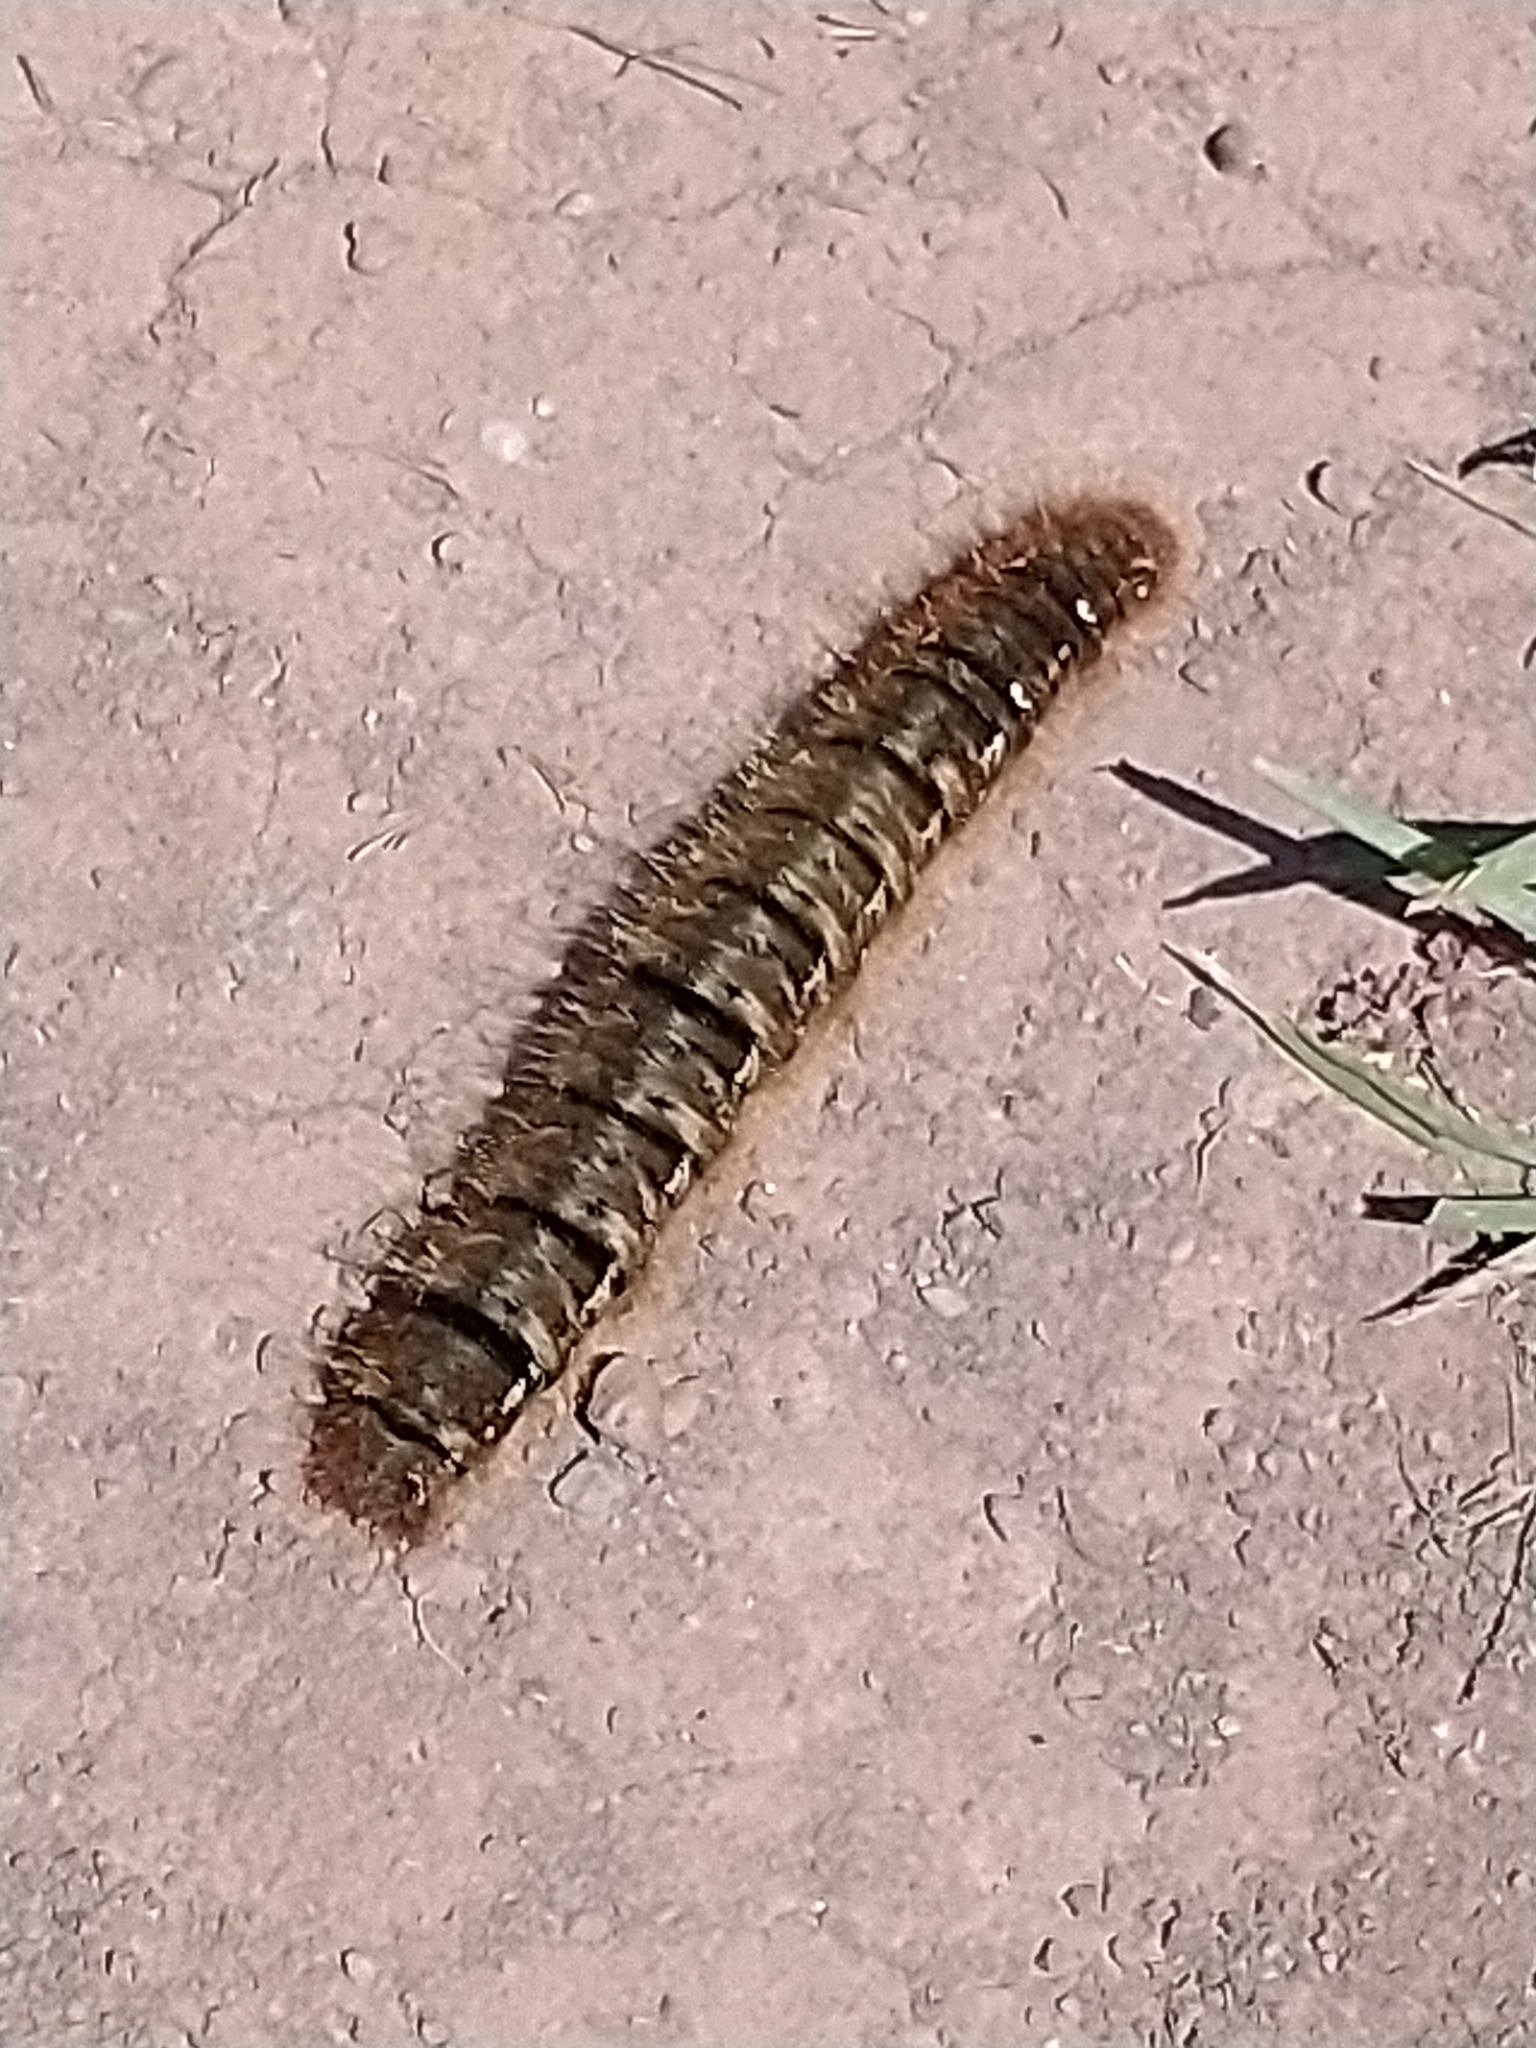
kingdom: Animalia
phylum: Arthropoda
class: Insecta
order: Lepidoptera
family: Lasiocampidae
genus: Lasiocampa
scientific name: Lasiocampa quercus
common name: Oak eggar
